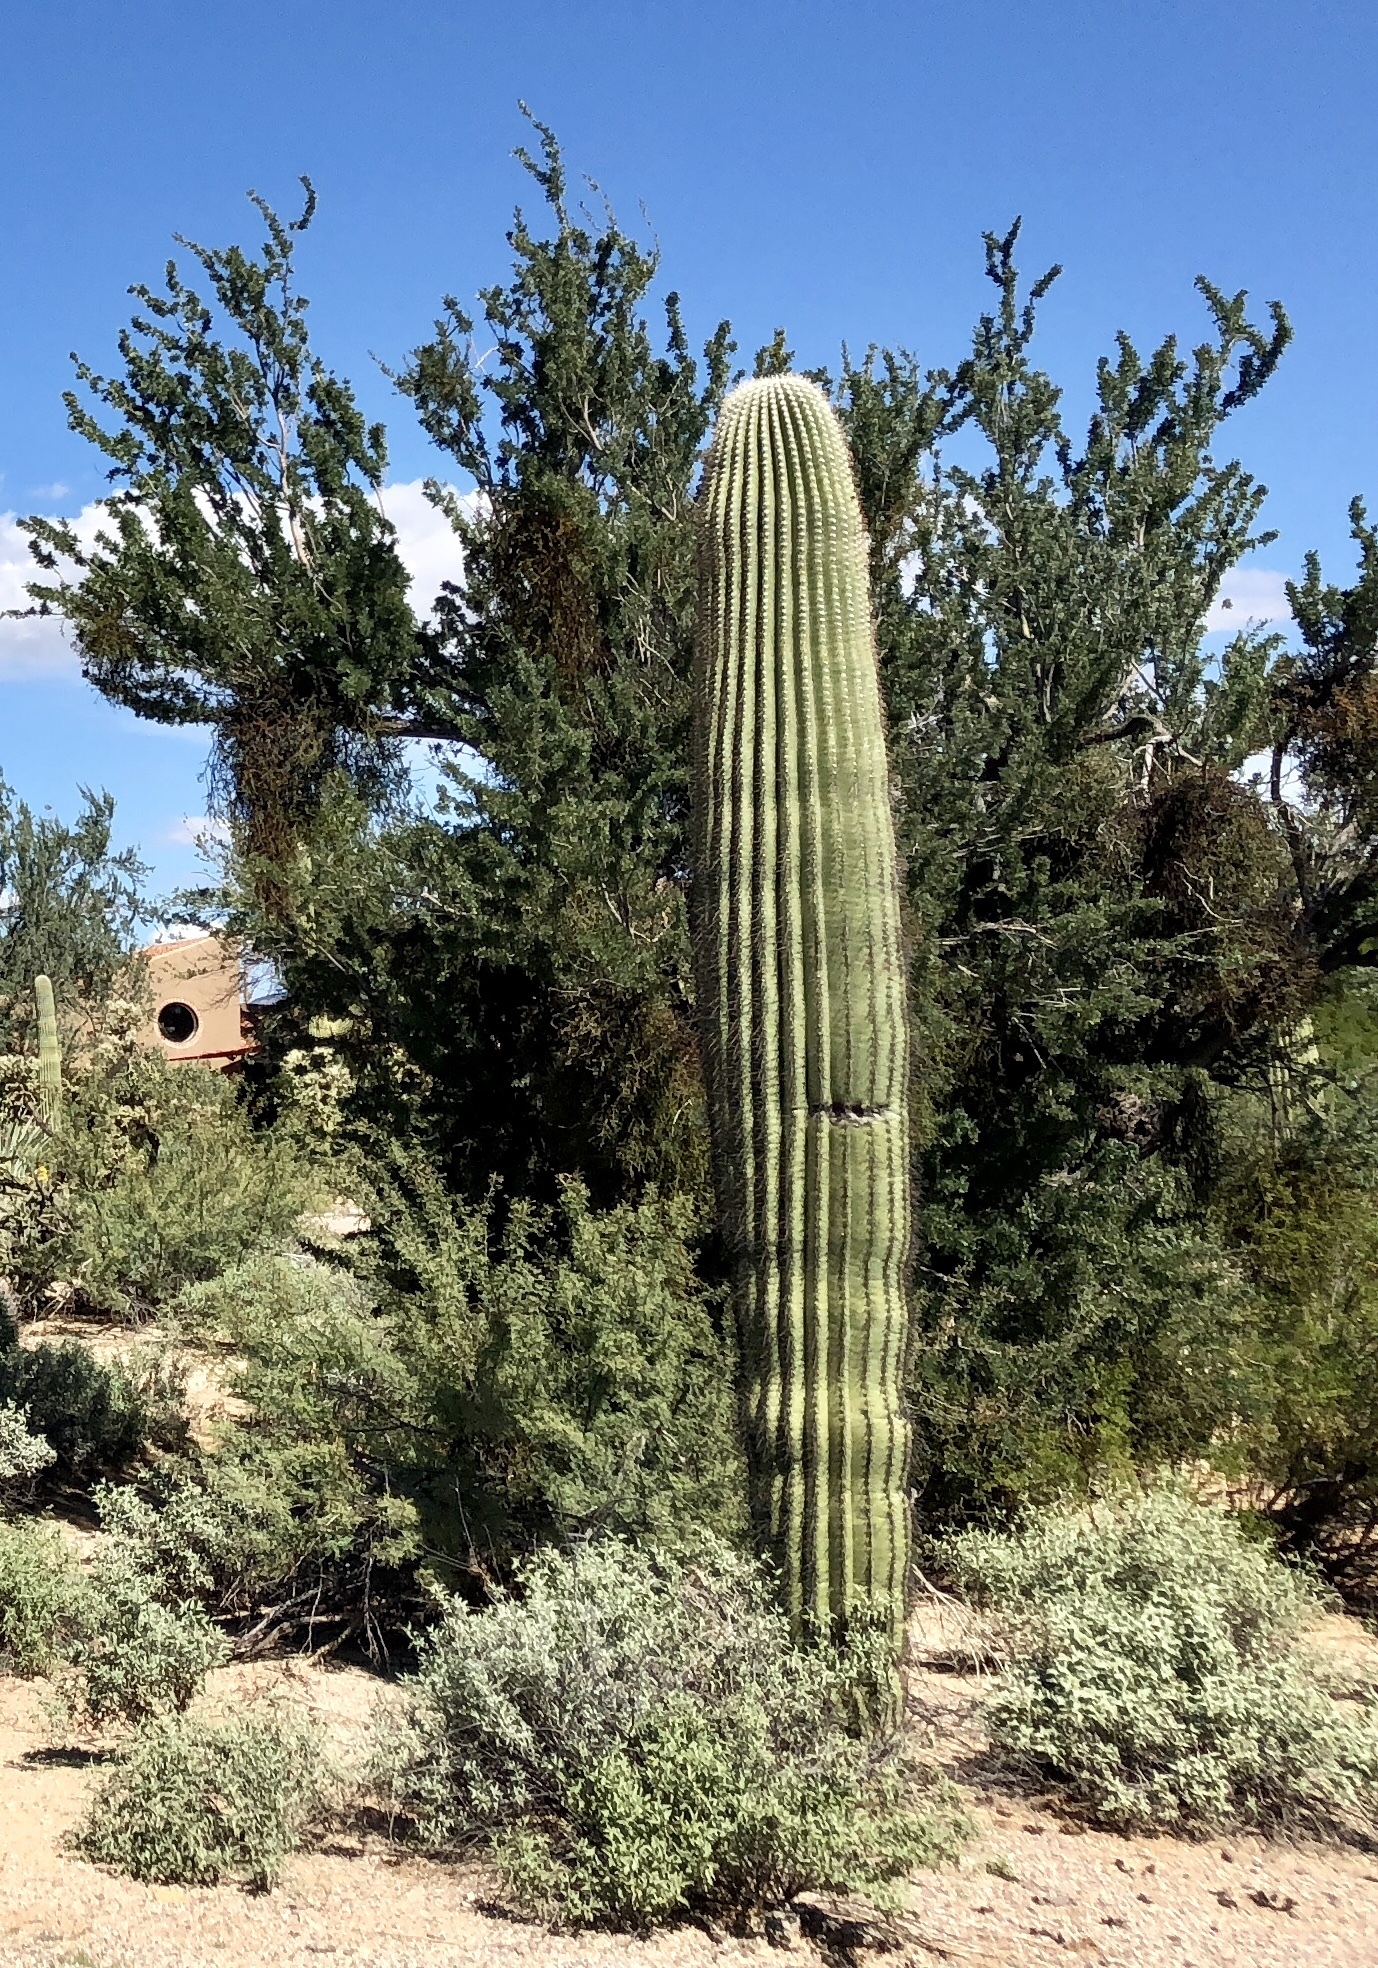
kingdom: Plantae
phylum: Tracheophyta
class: Magnoliopsida
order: Caryophyllales
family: Cactaceae
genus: Carnegiea
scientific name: Carnegiea gigantea
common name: Saguaro
